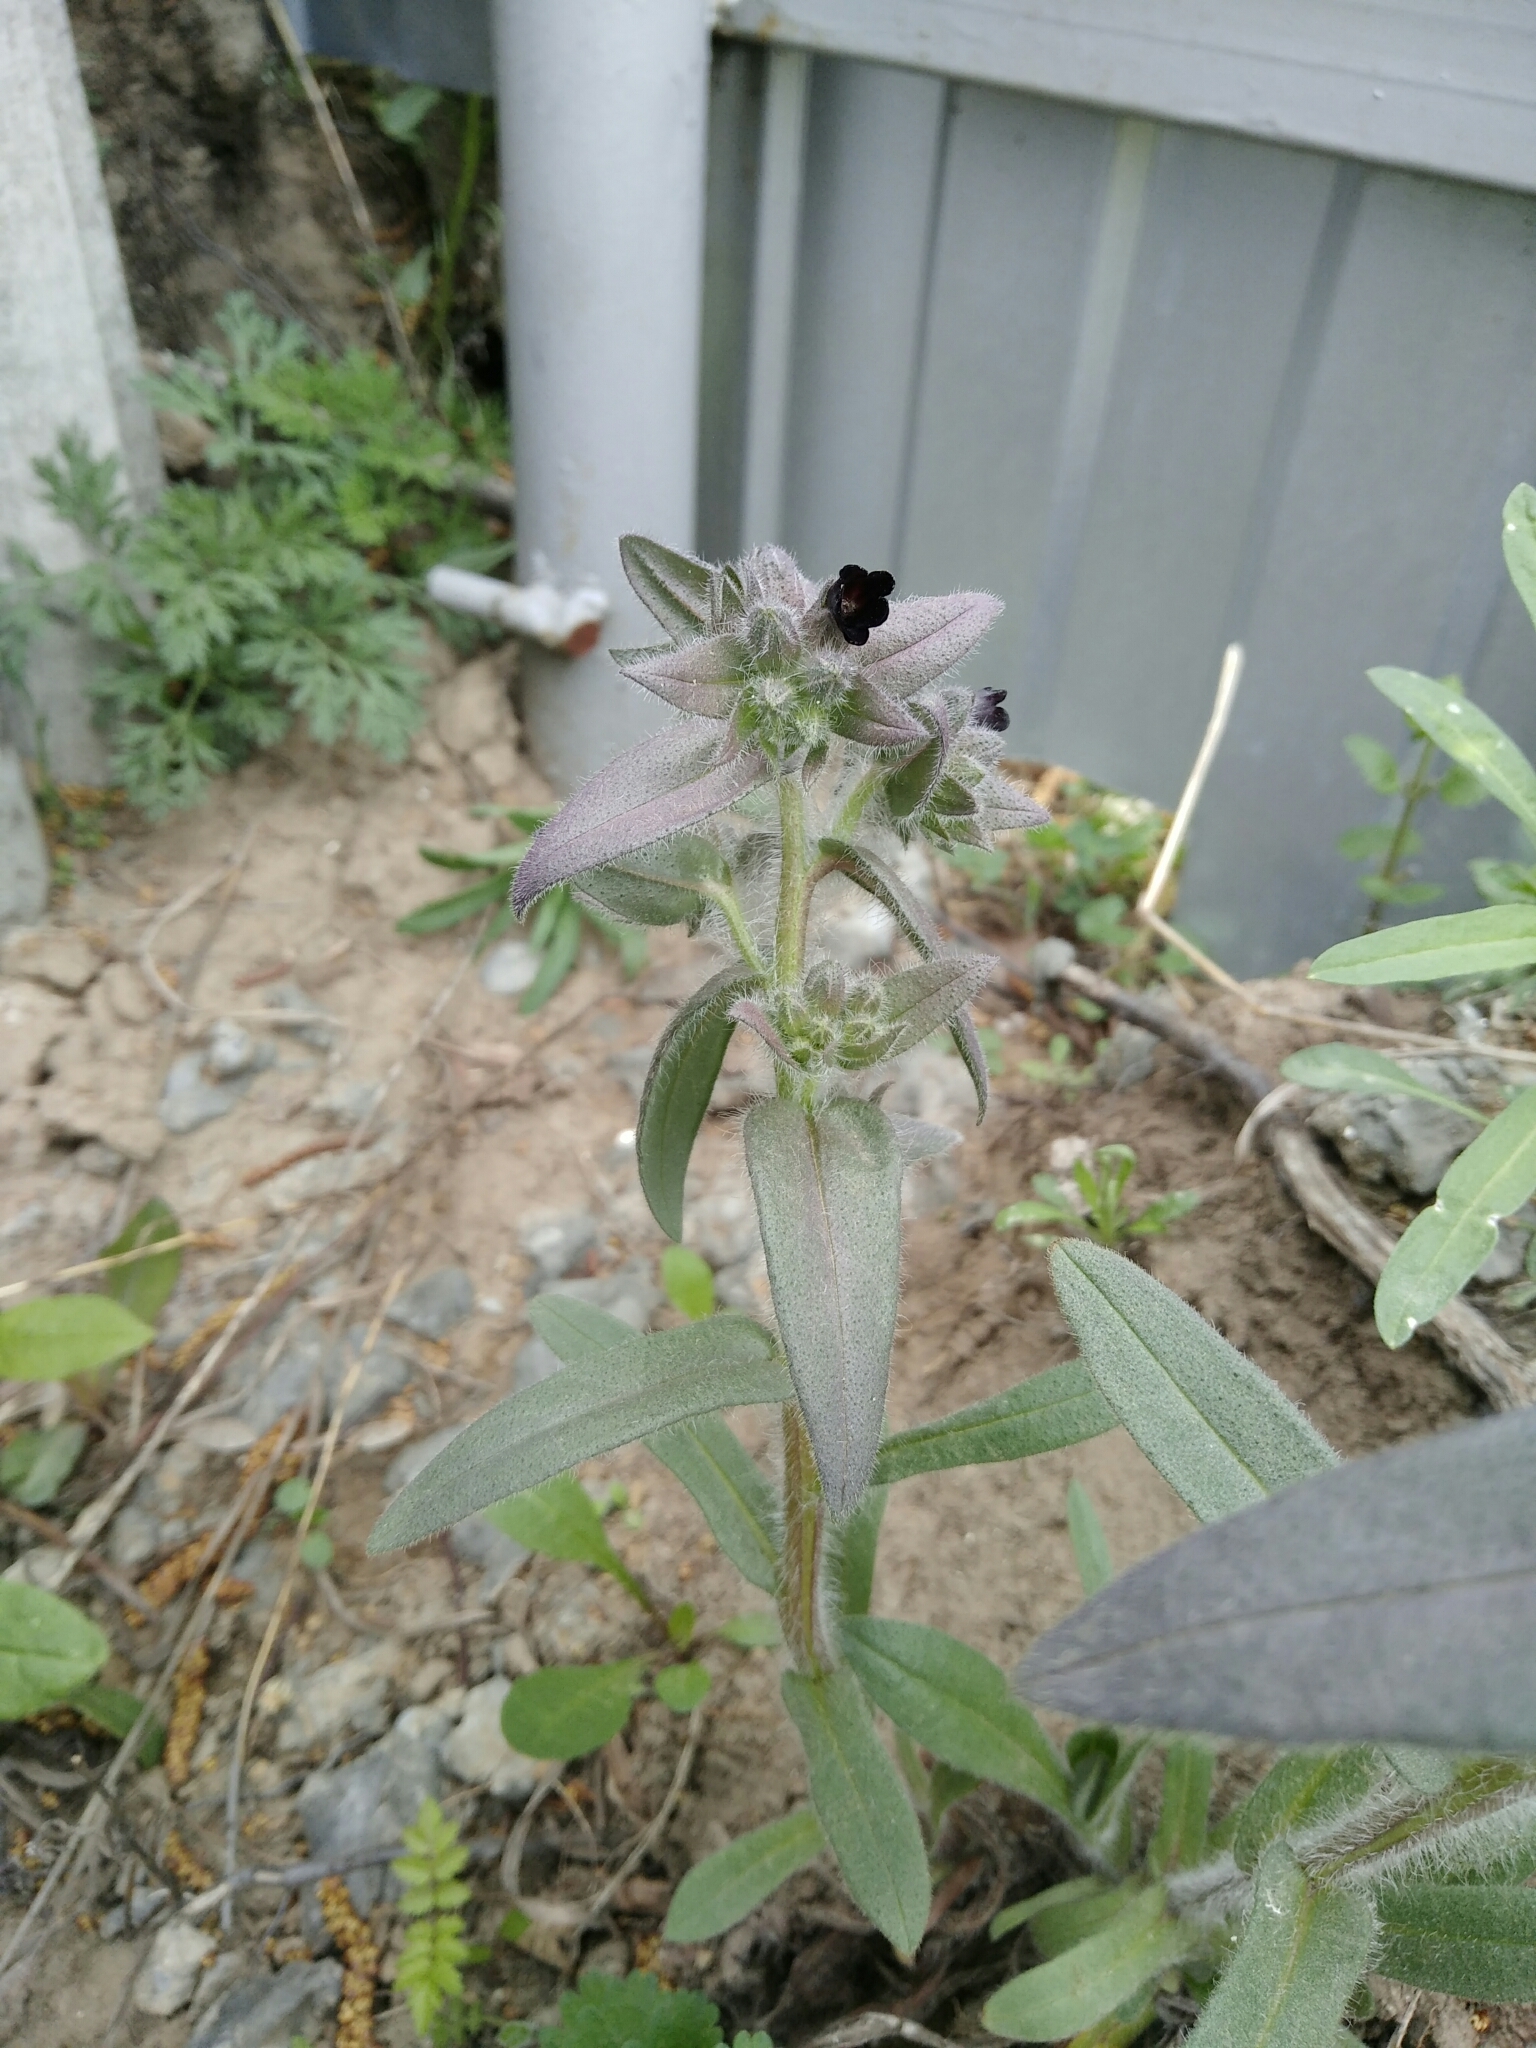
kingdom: Plantae
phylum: Tracheophyta
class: Magnoliopsida
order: Boraginales
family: Boraginaceae
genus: Nonea
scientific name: Nonea pulla
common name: Brown nonea
